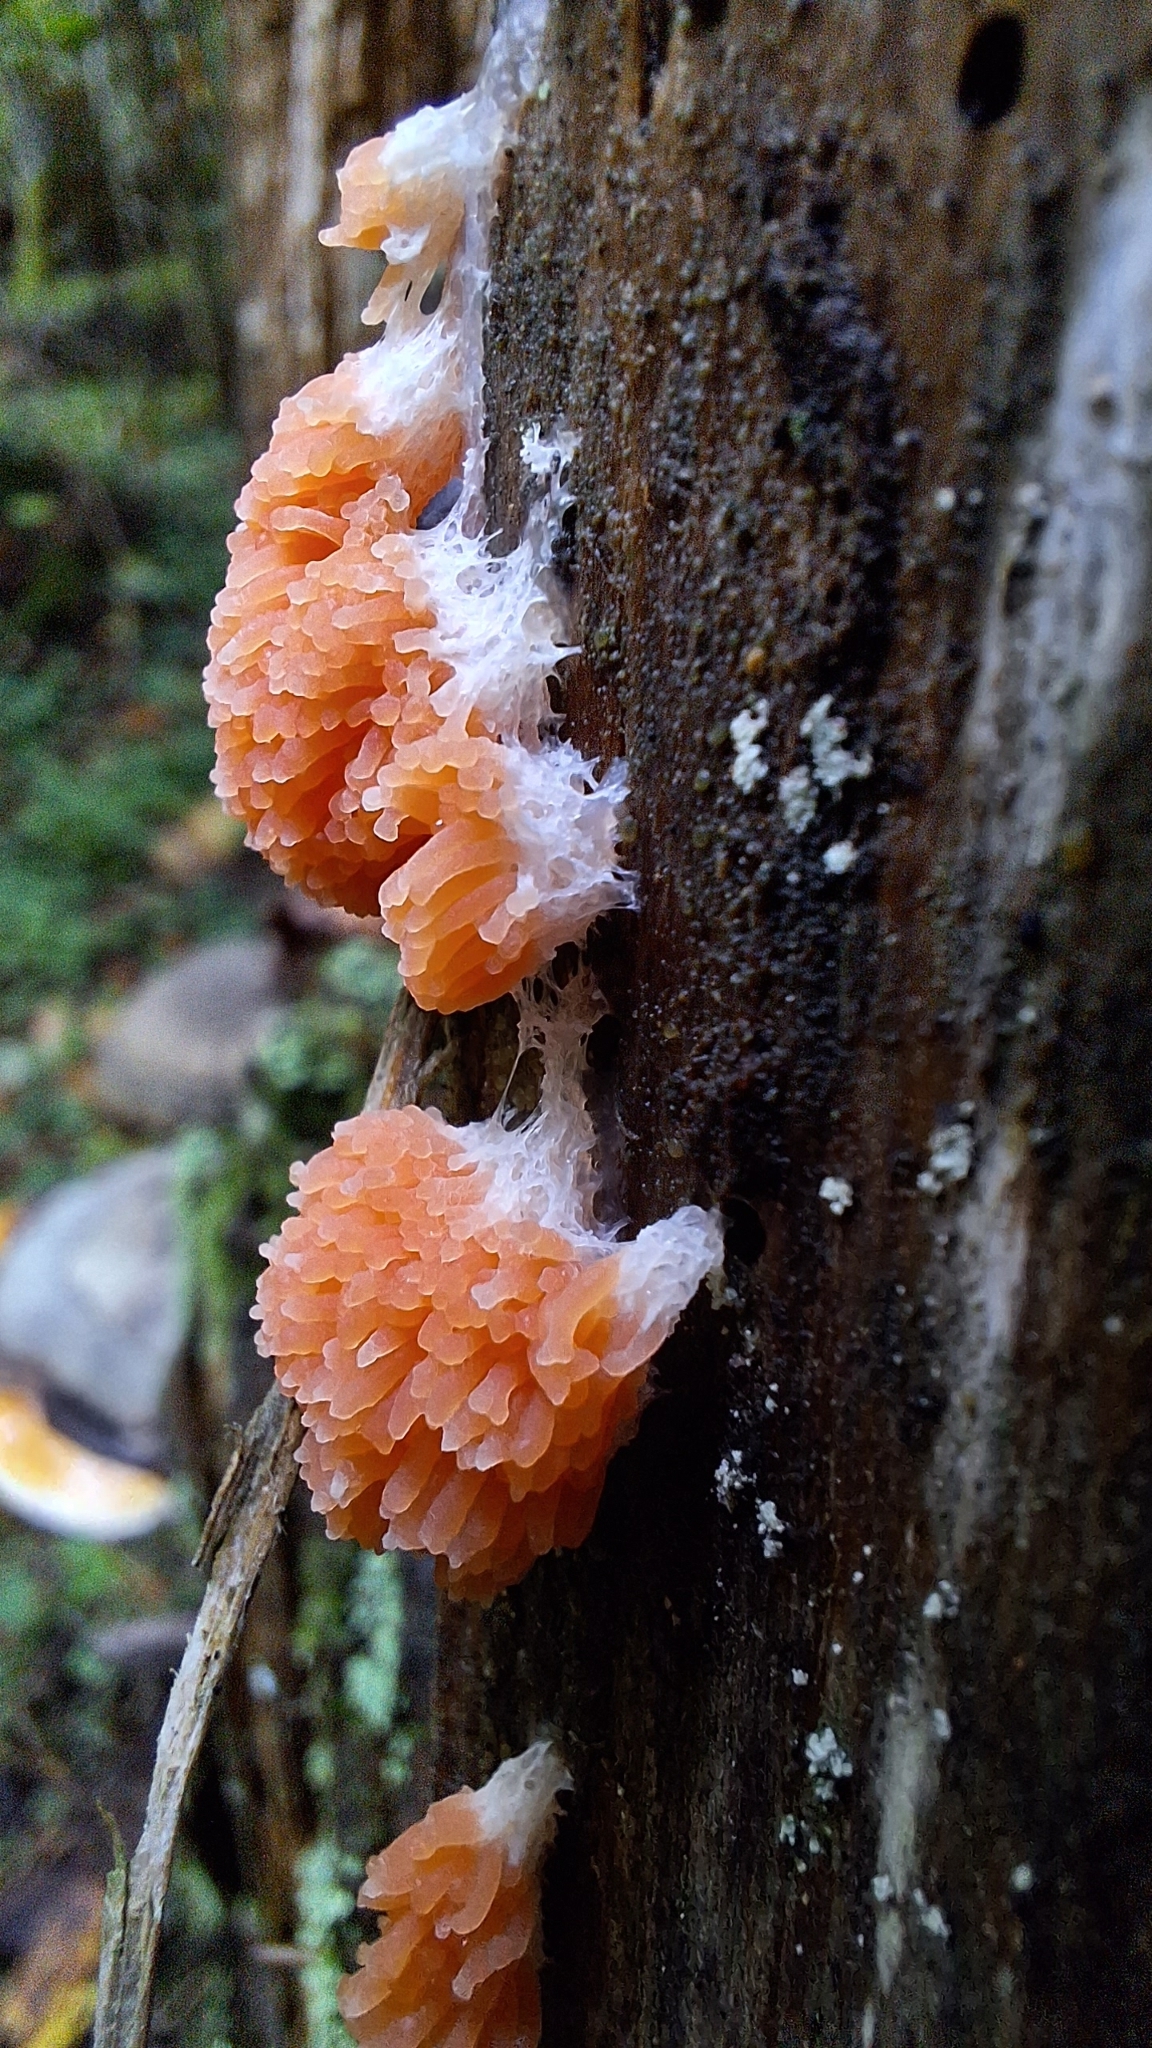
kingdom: Protozoa
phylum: Mycetozoa
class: Myxomycetes
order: Cribrariales
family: Tubiferaceae
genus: Tubifera
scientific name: Tubifera ferruginosa
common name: Red raspberry slime mold
